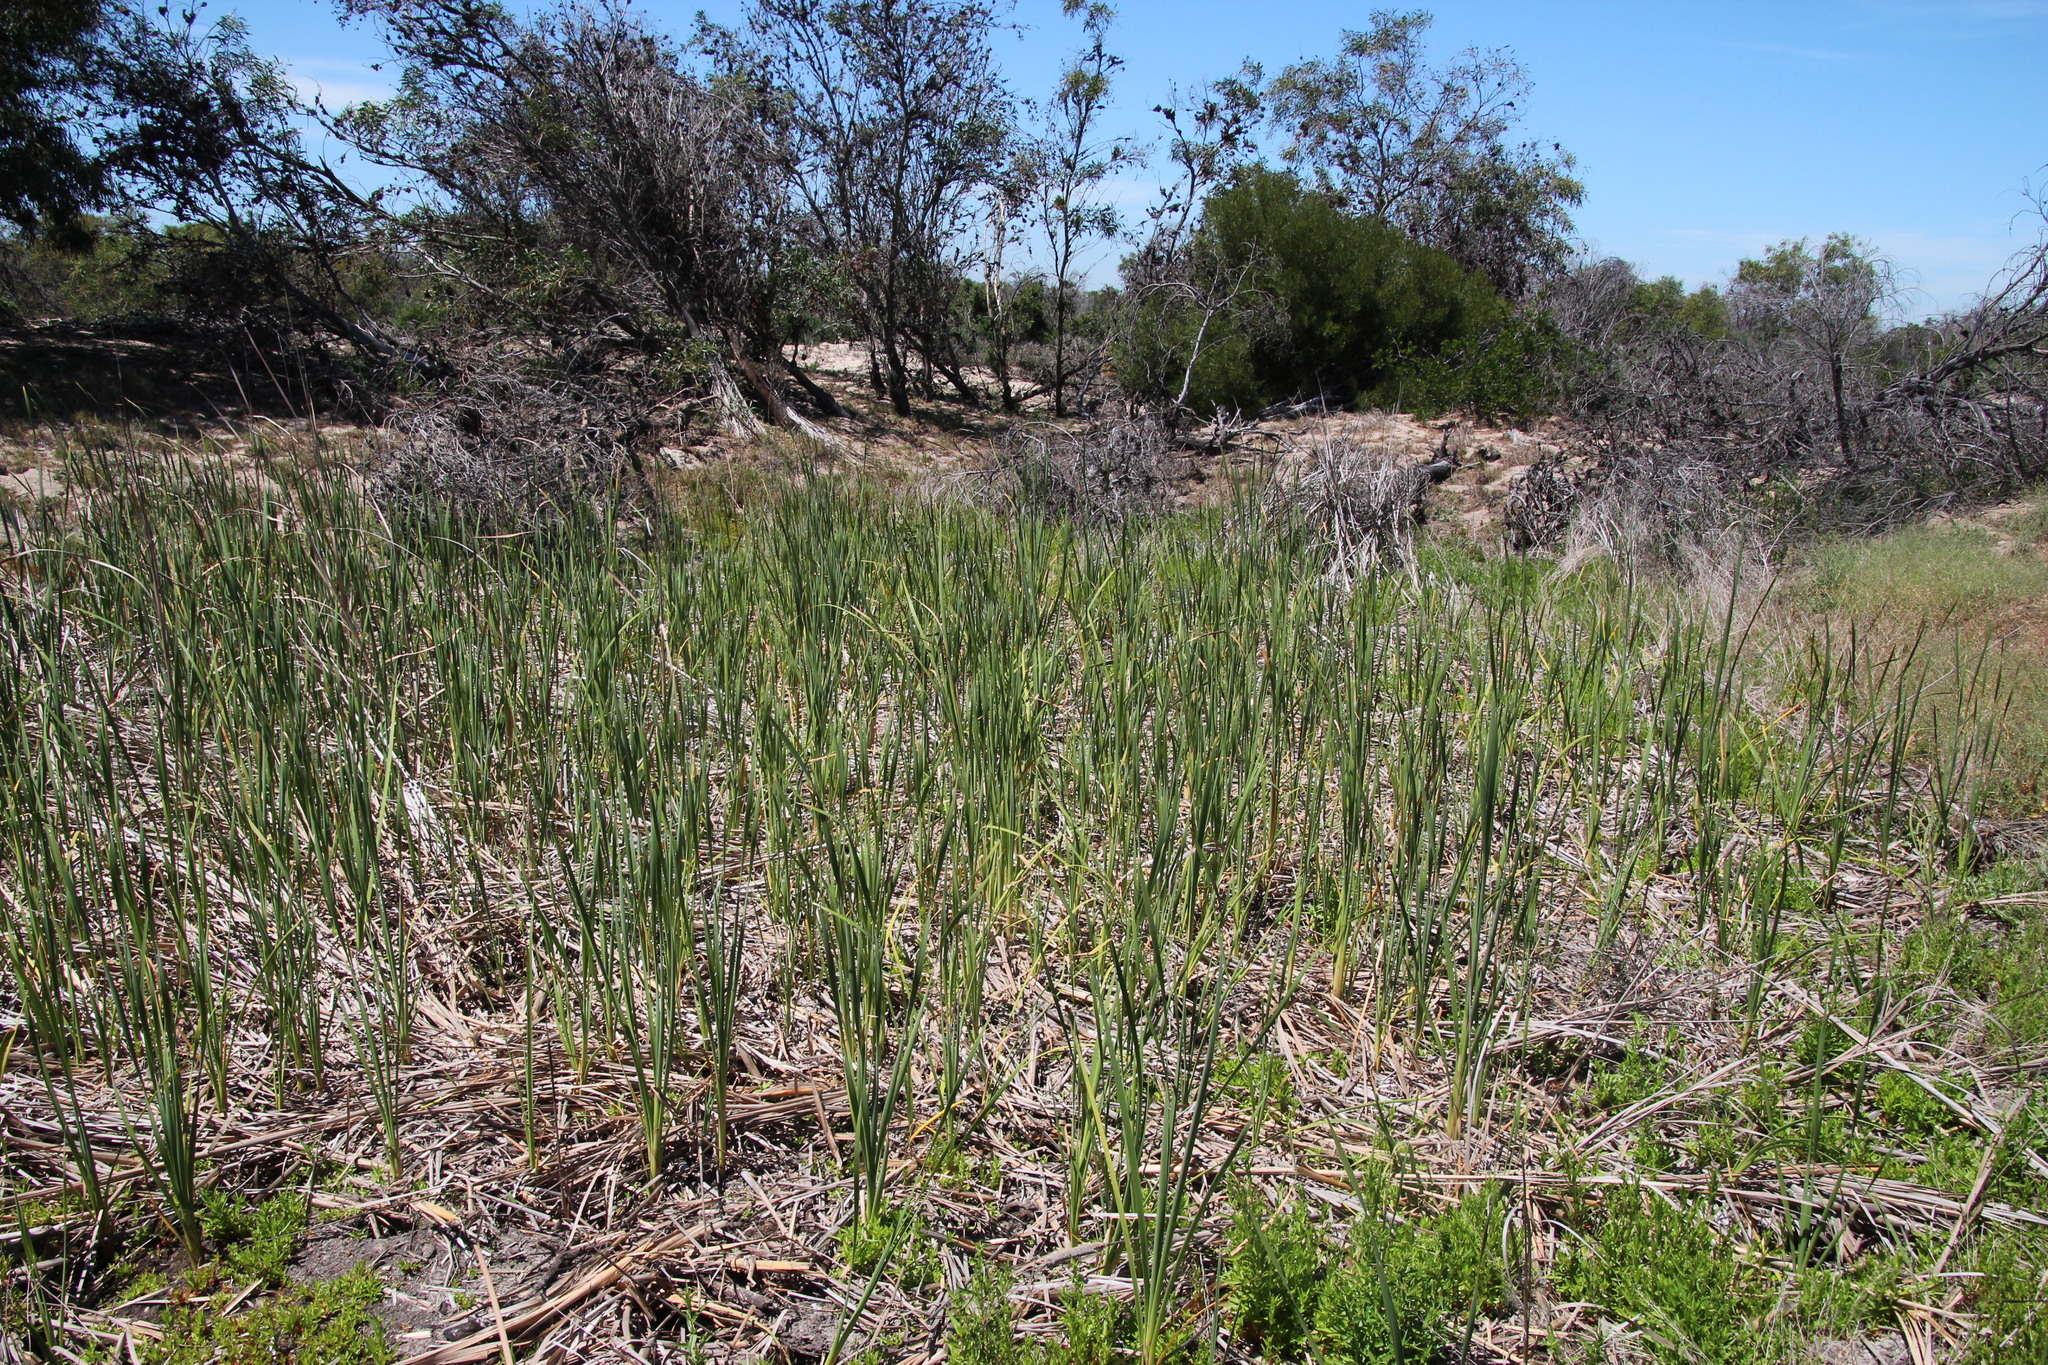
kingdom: Plantae
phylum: Tracheophyta
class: Liliopsida
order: Poales
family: Typhaceae
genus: Typha
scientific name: Typha capensis
